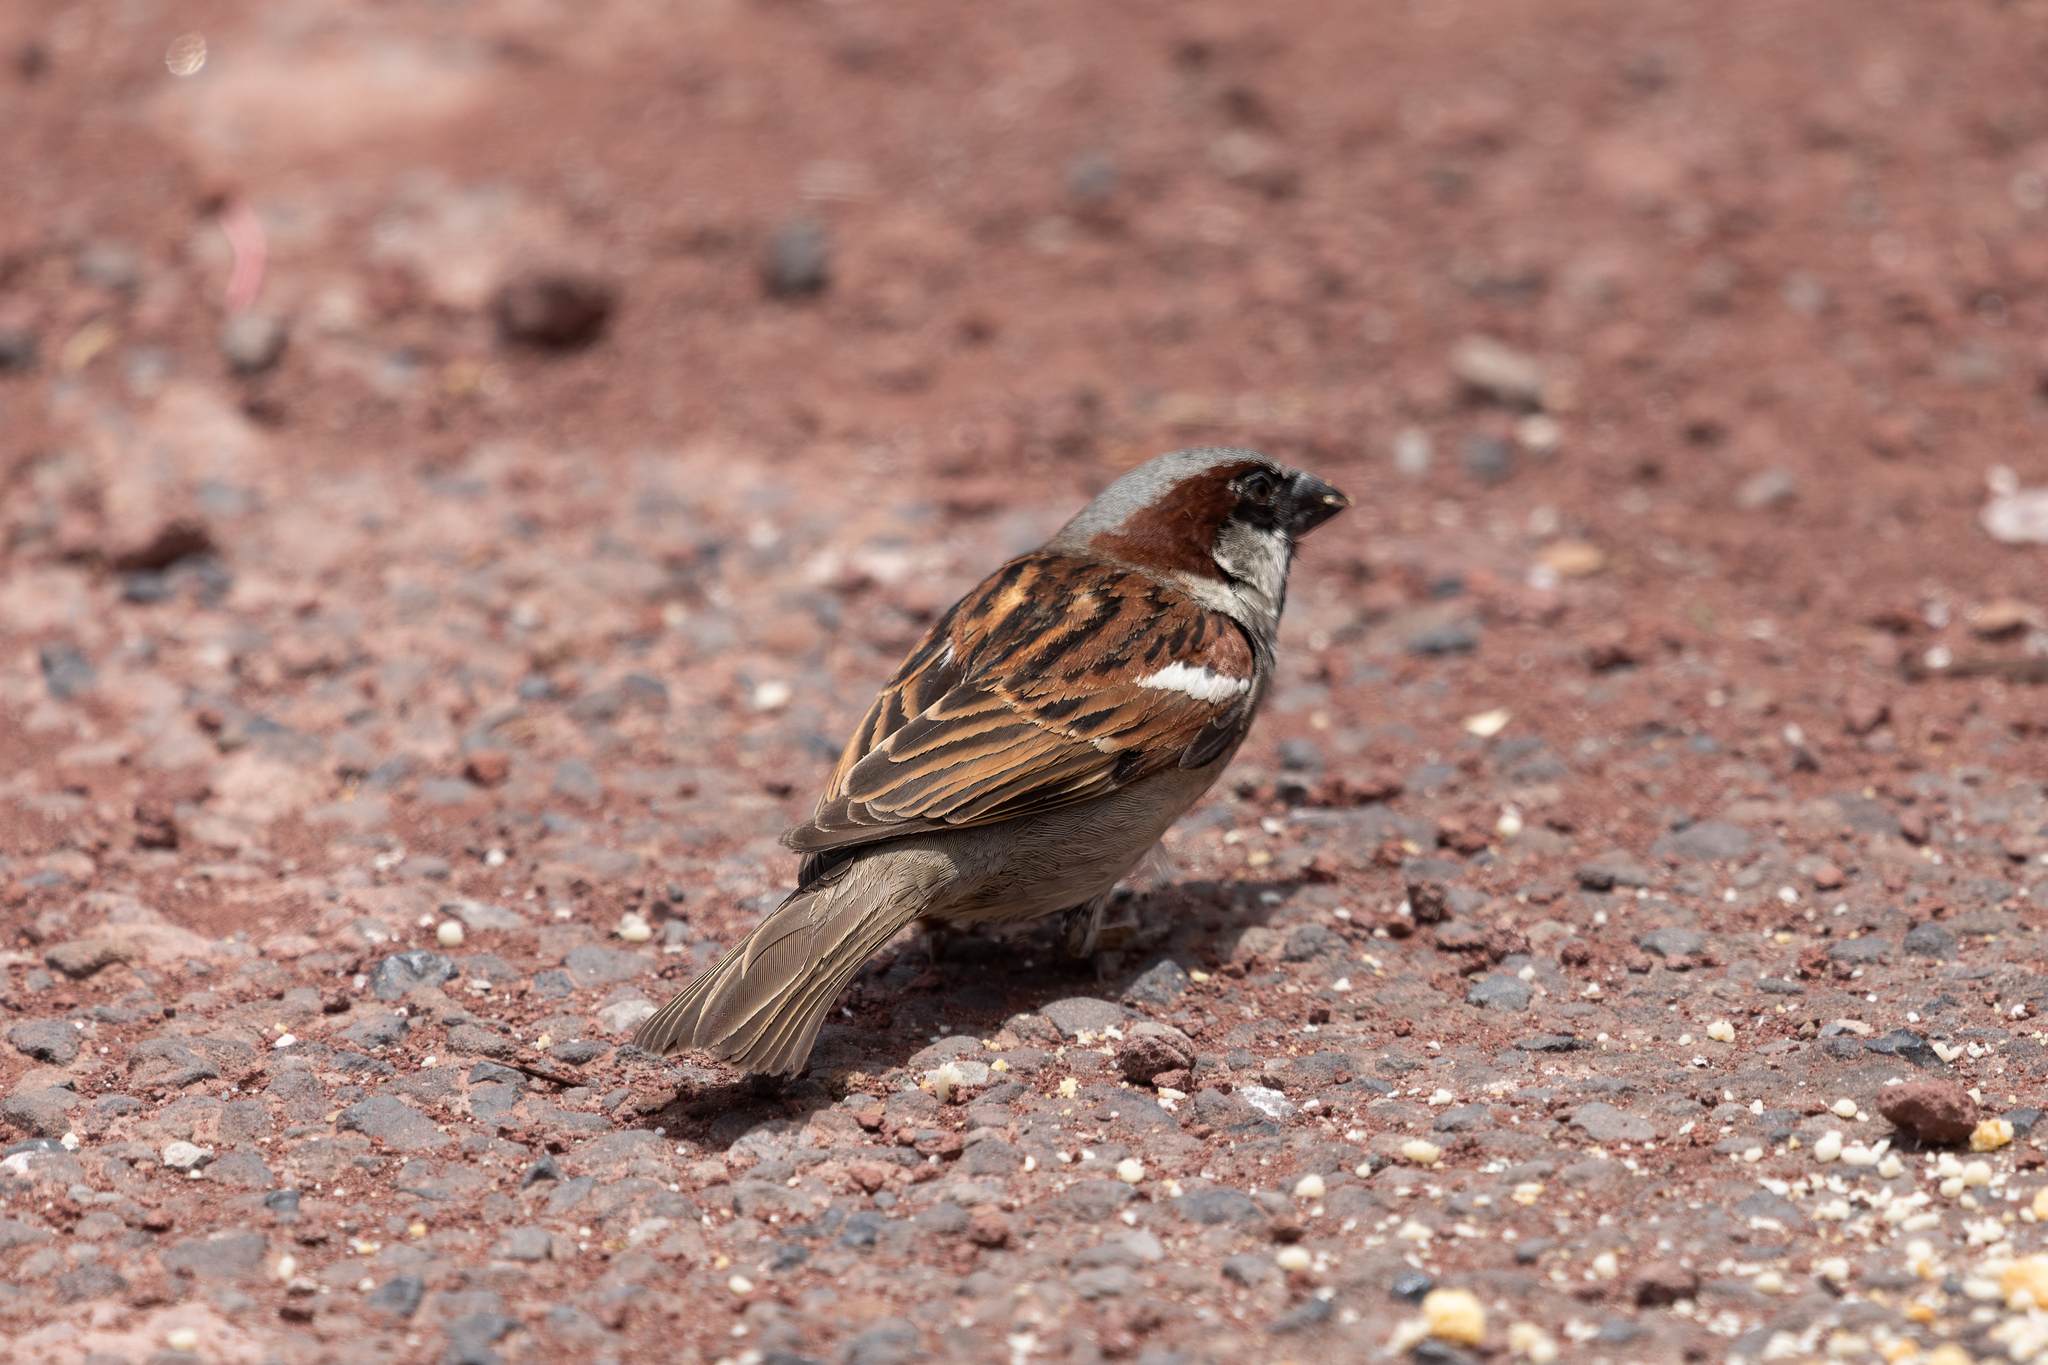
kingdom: Animalia
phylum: Chordata
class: Aves
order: Passeriformes
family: Passeridae
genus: Passer
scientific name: Passer domesticus
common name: House sparrow
